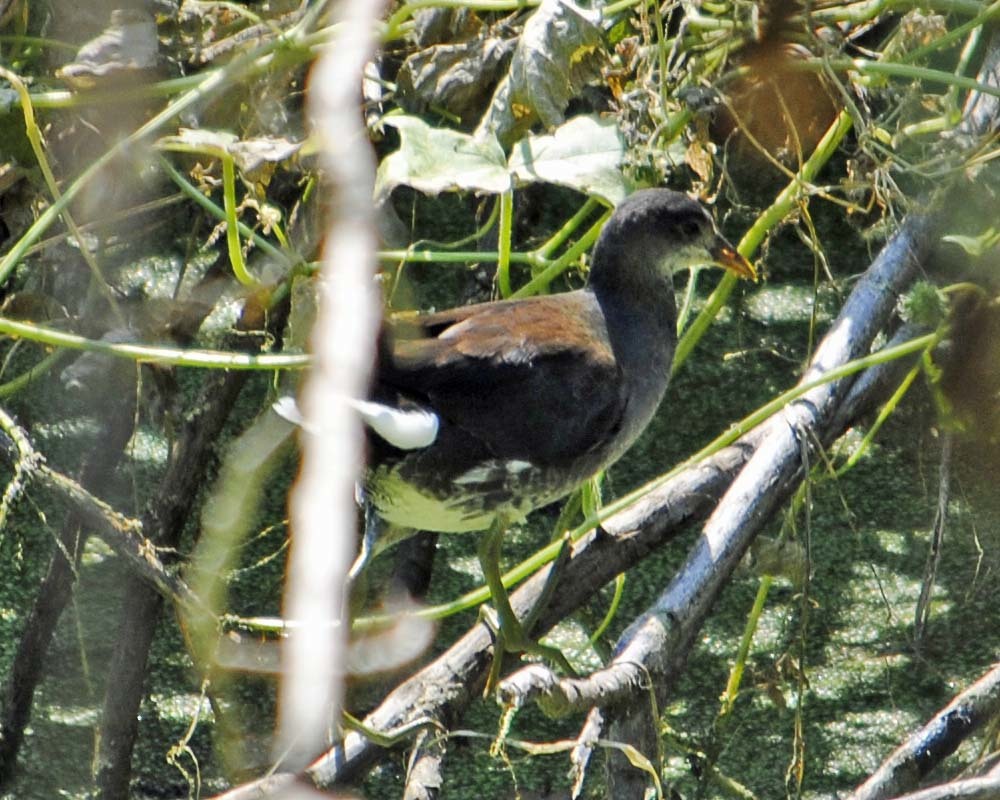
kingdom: Animalia
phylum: Chordata
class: Aves
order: Gruiformes
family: Rallidae
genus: Gallinula
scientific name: Gallinula chloropus
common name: Common moorhen
